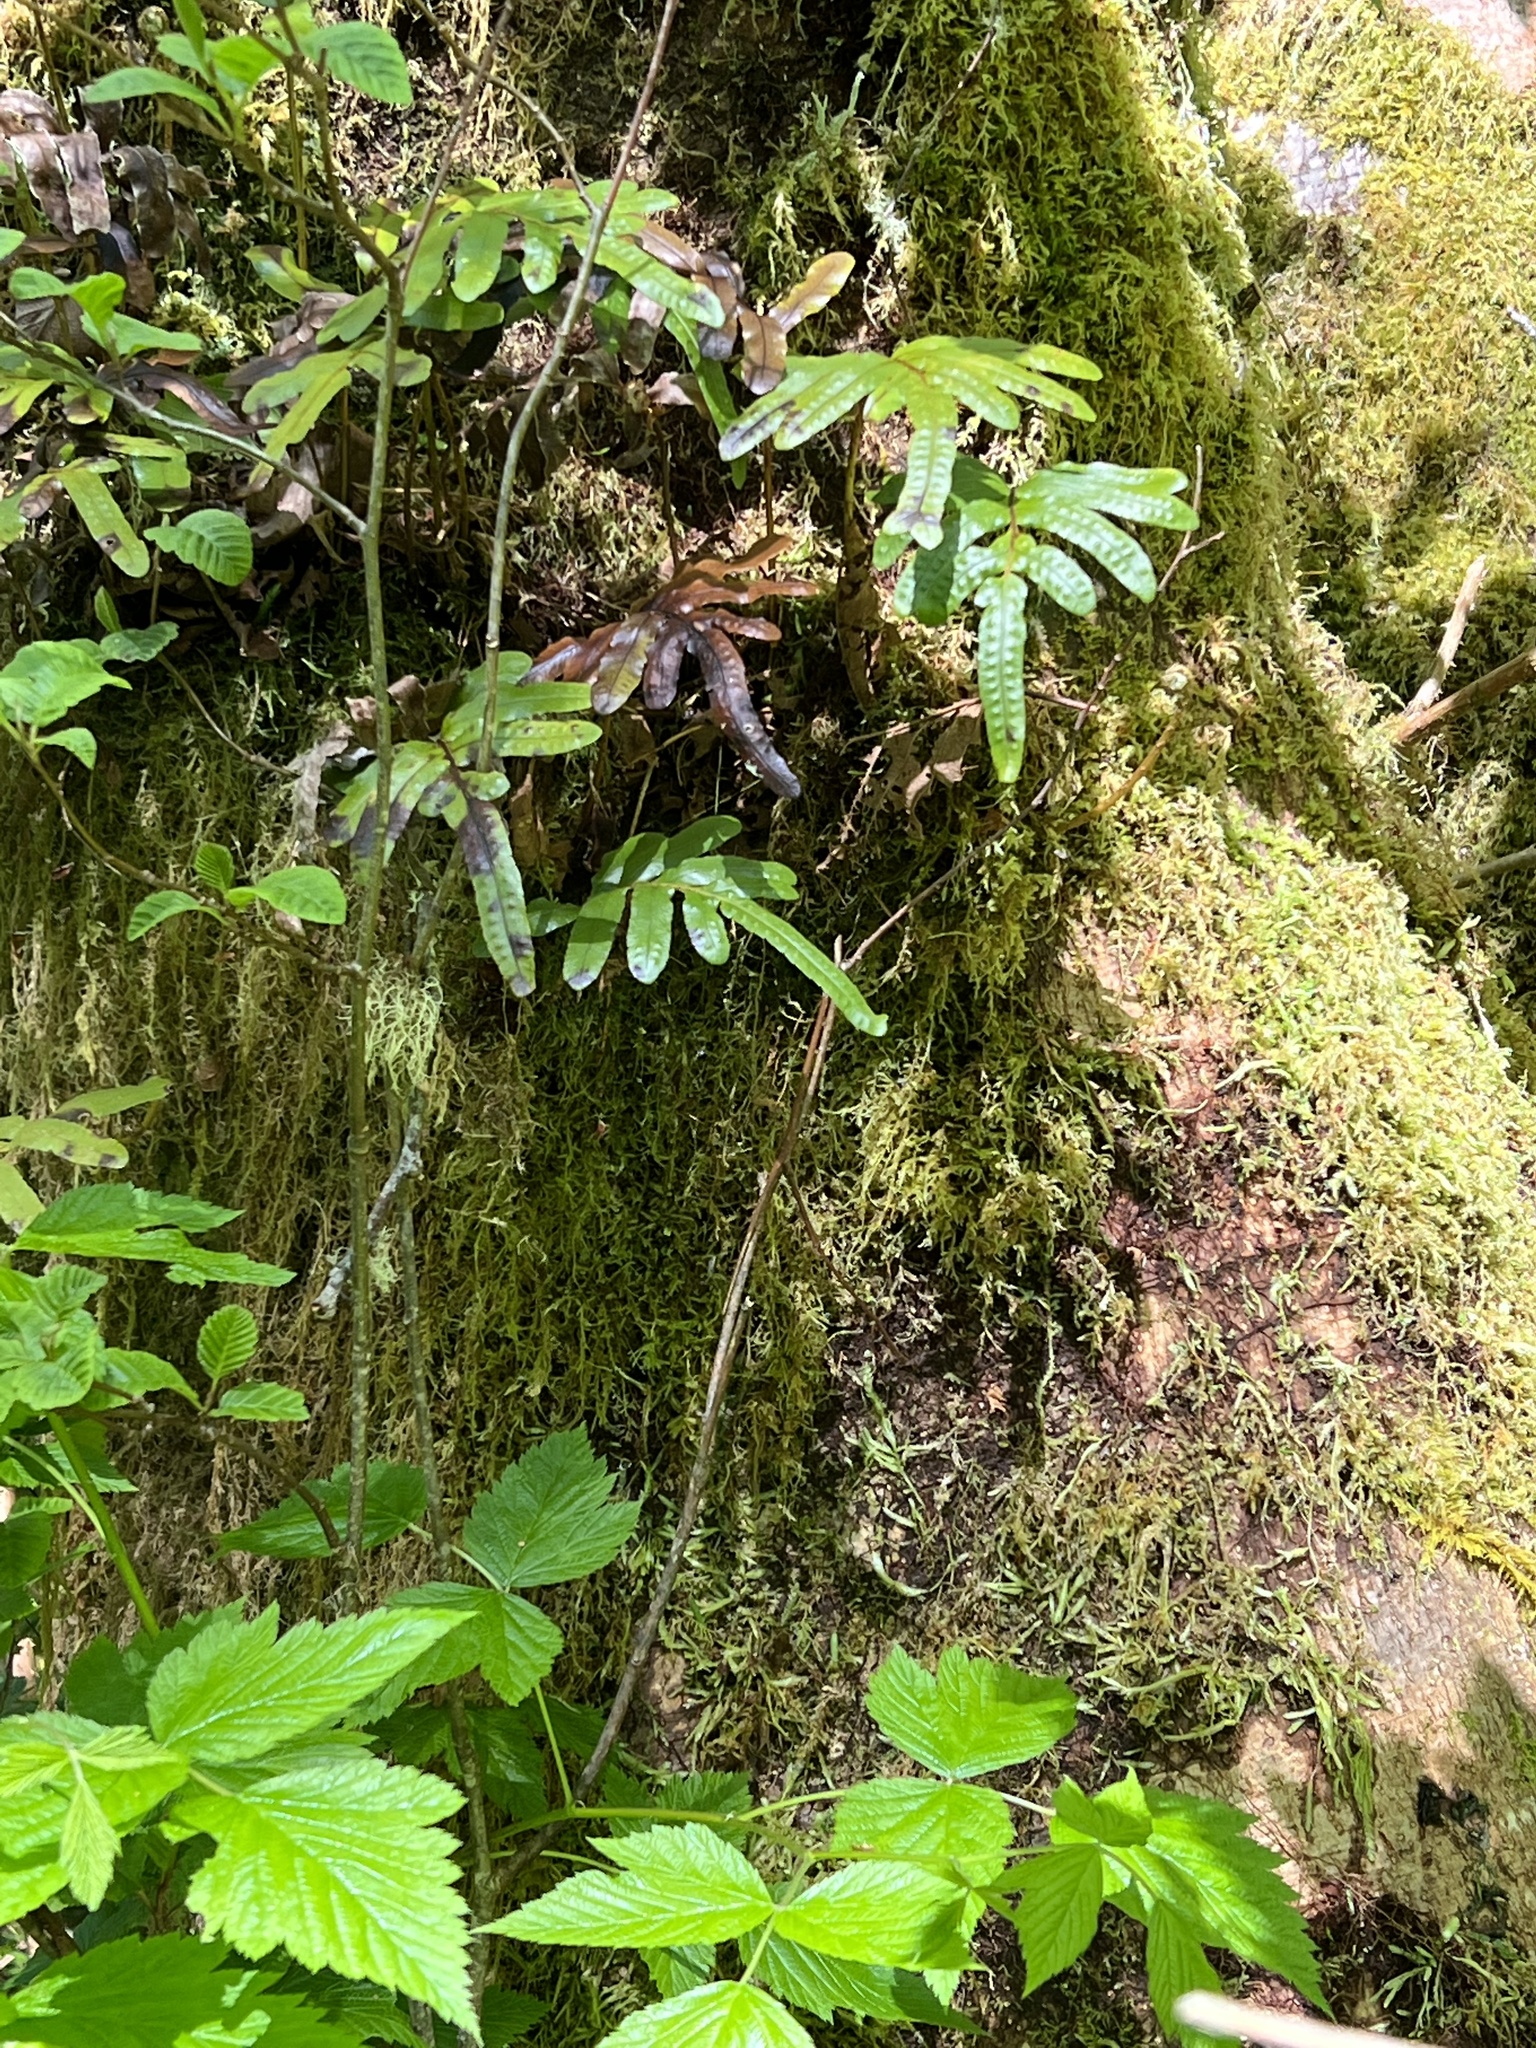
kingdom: Plantae
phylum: Tracheophyta
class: Polypodiopsida
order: Polypodiales
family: Polypodiaceae
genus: Polypodium
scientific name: Polypodium scouleri
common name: Scouler's polypody
